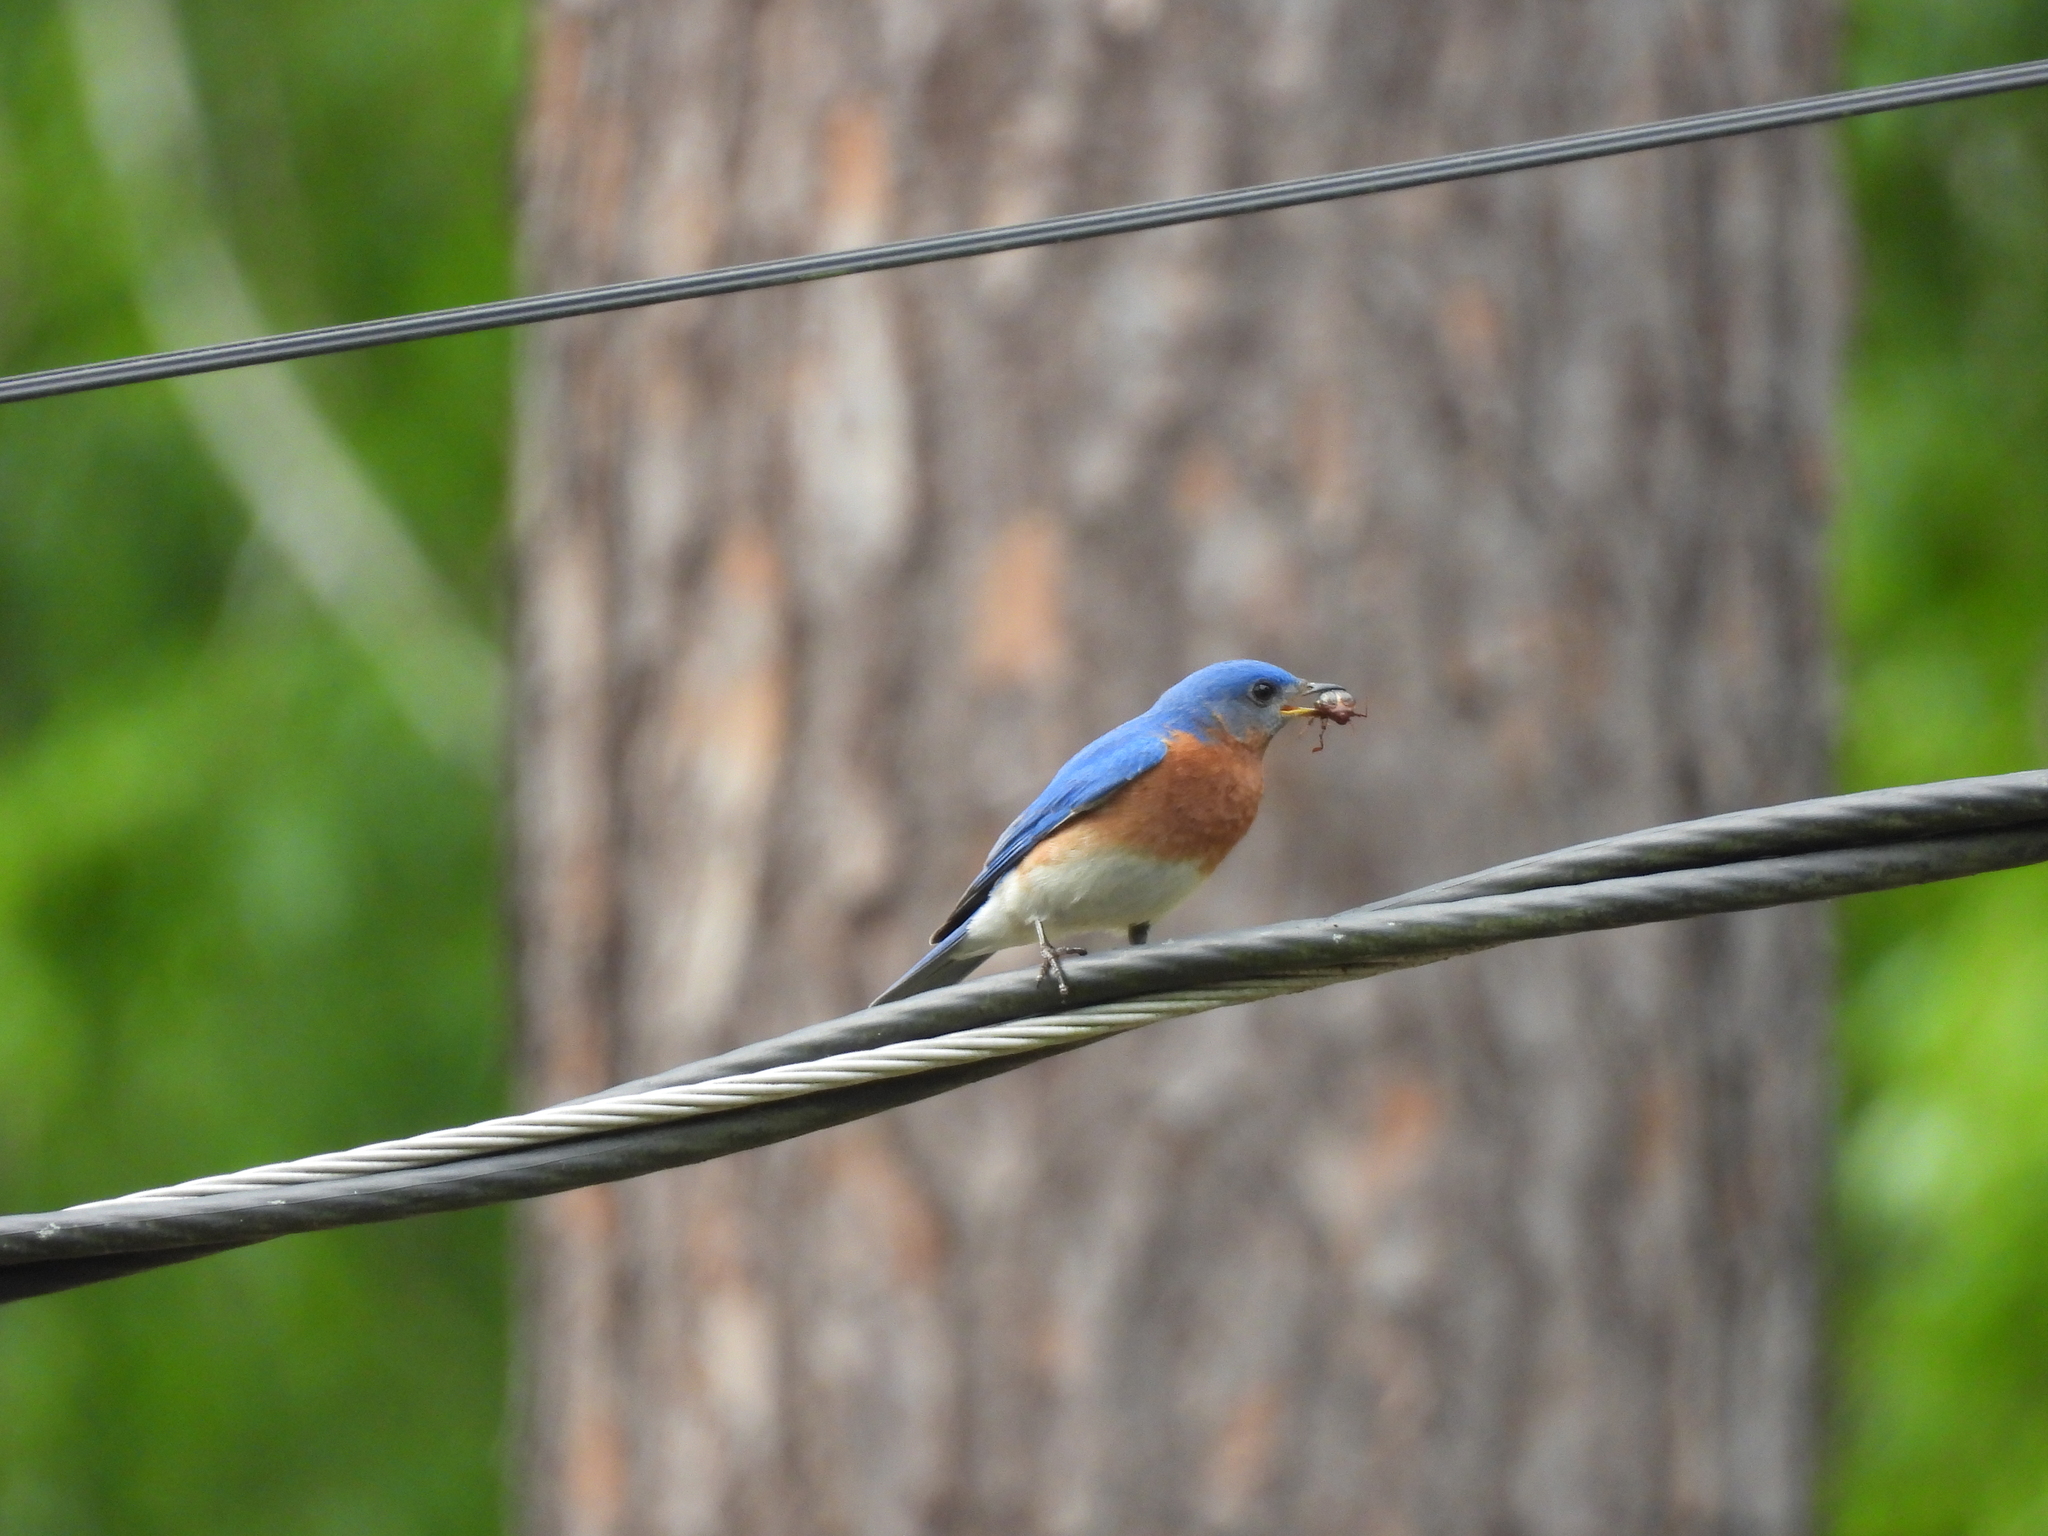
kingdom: Animalia
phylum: Chordata
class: Aves
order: Passeriformes
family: Turdidae
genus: Sialia
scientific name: Sialia sialis
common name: Eastern bluebird
